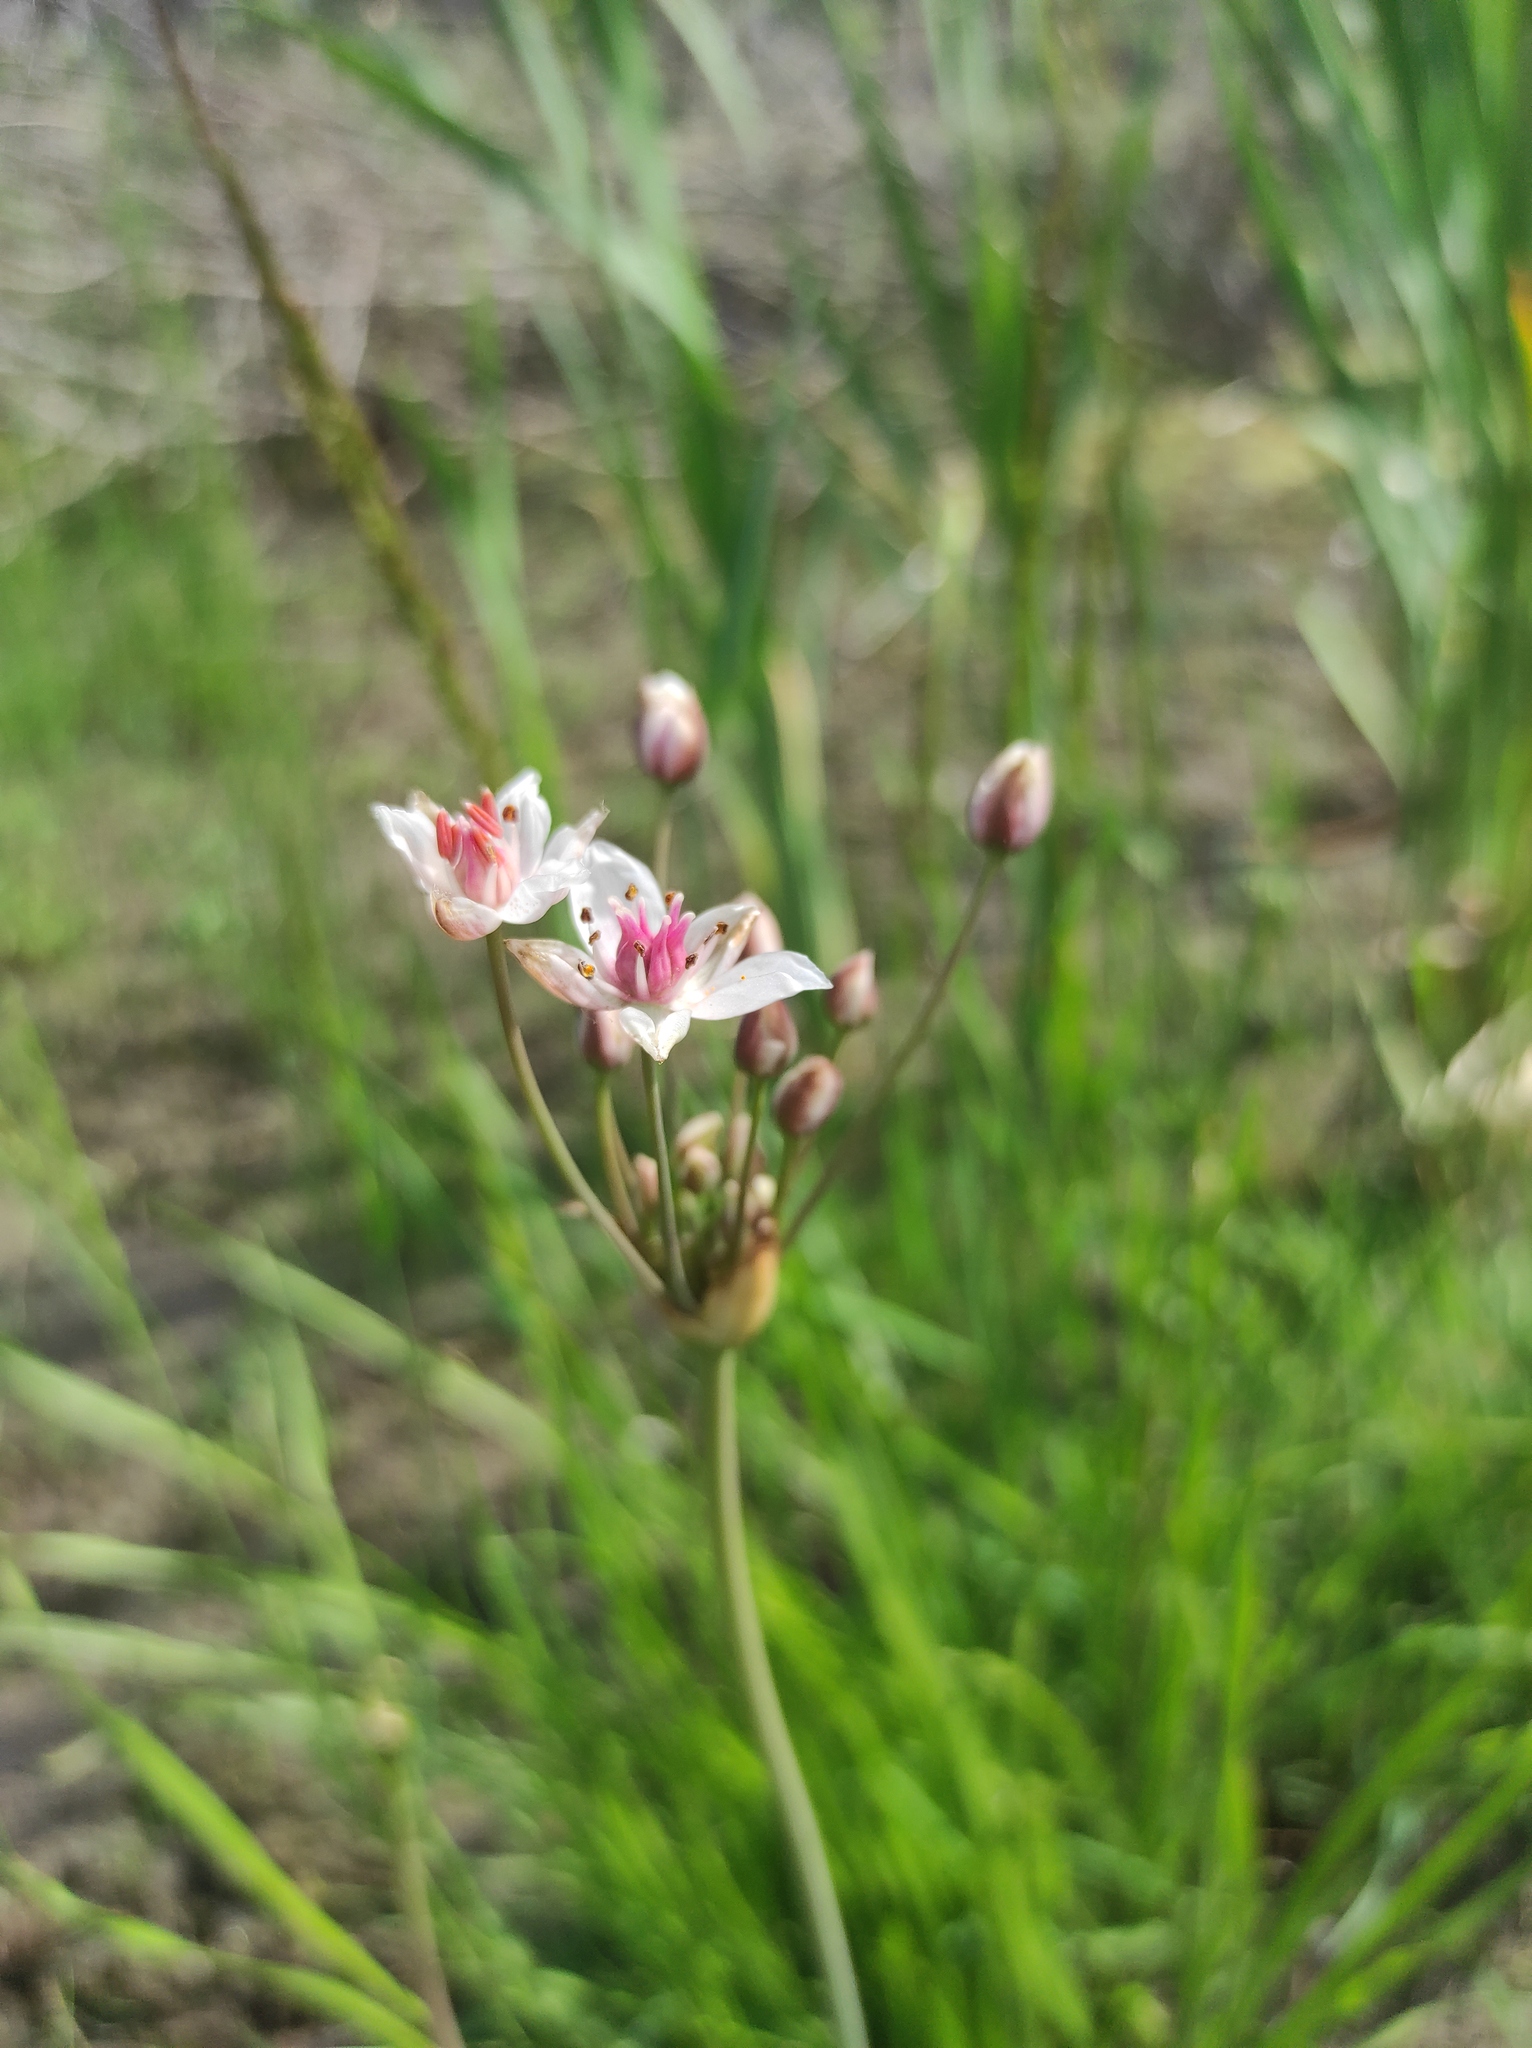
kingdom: Plantae
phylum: Tracheophyta
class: Liliopsida
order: Alismatales
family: Butomaceae
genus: Butomus
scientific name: Butomus umbellatus
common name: Flowering-rush
